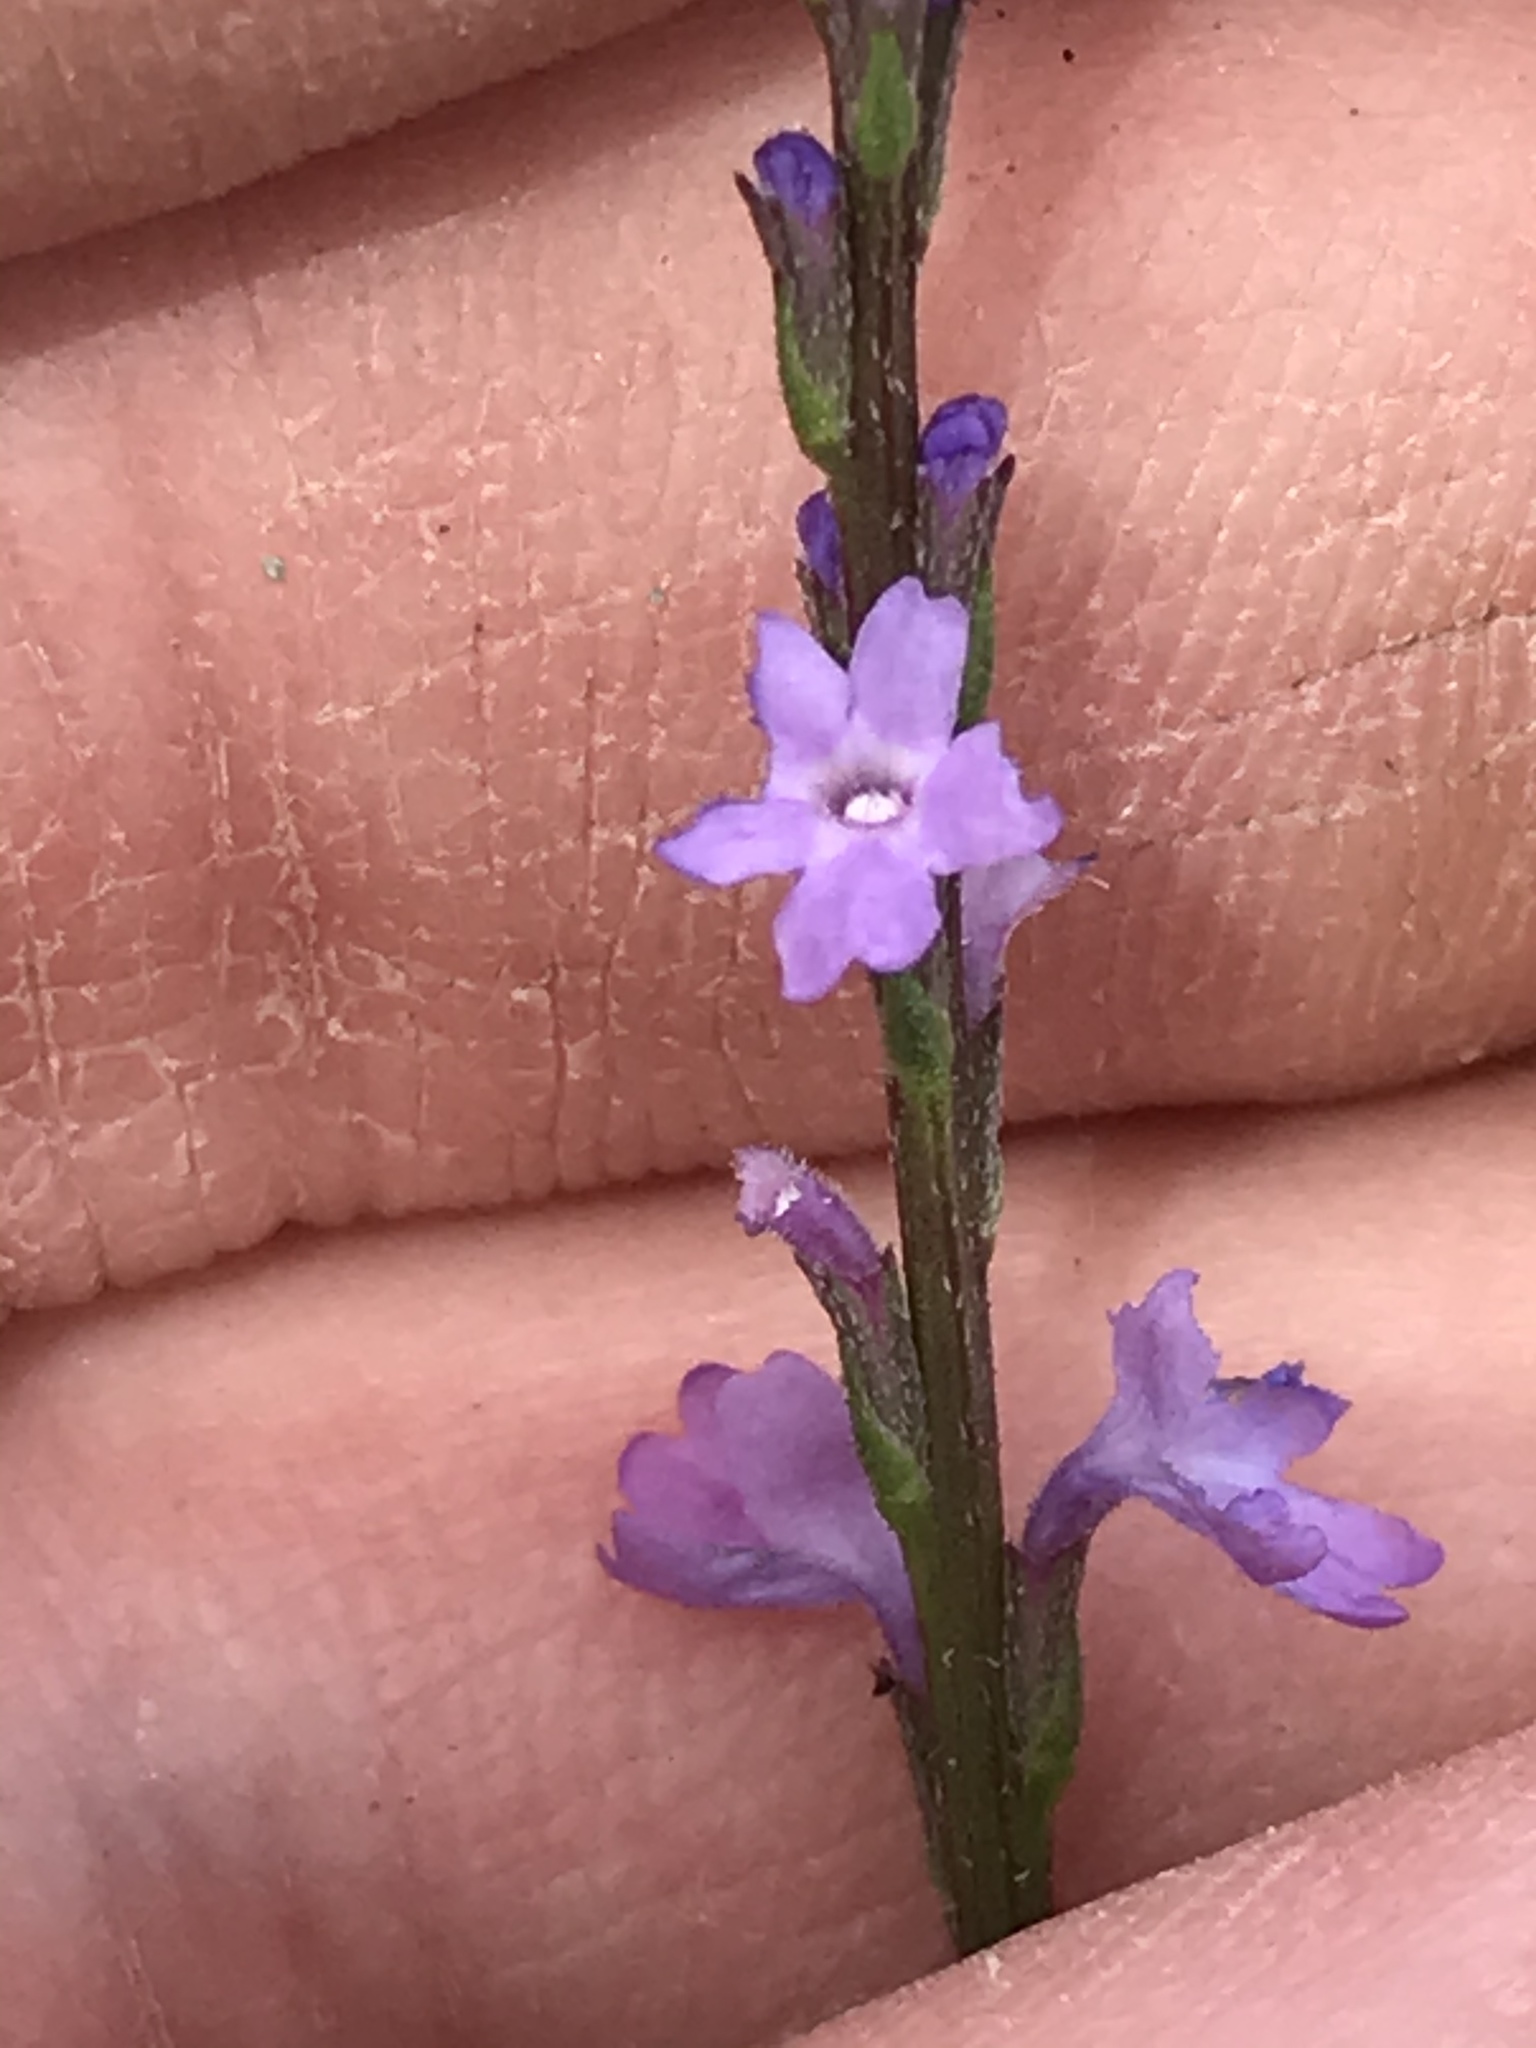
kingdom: Plantae
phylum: Tracheophyta
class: Magnoliopsida
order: Lamiales
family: Verbenaceae
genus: Verbena
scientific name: Verbena halei
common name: Texas vervain
